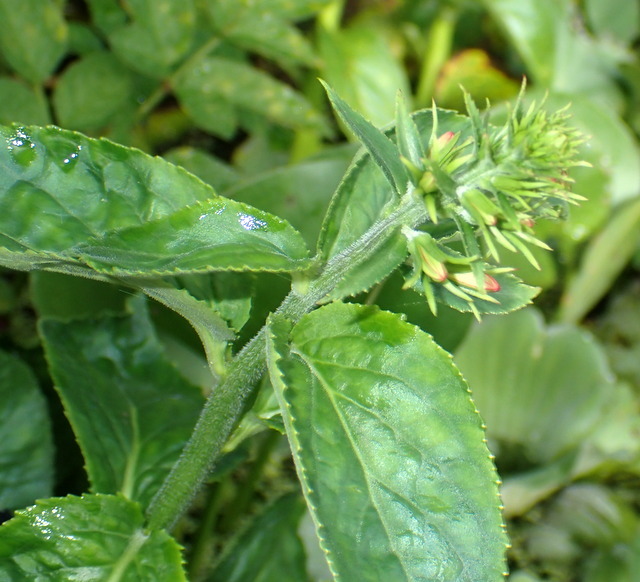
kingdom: Plantae
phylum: Tracheophyta
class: Magnoliopsida
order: Asterales
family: Campanulaceae
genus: Lobelia
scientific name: Lobelia cardinalis
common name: Cardinal flower
